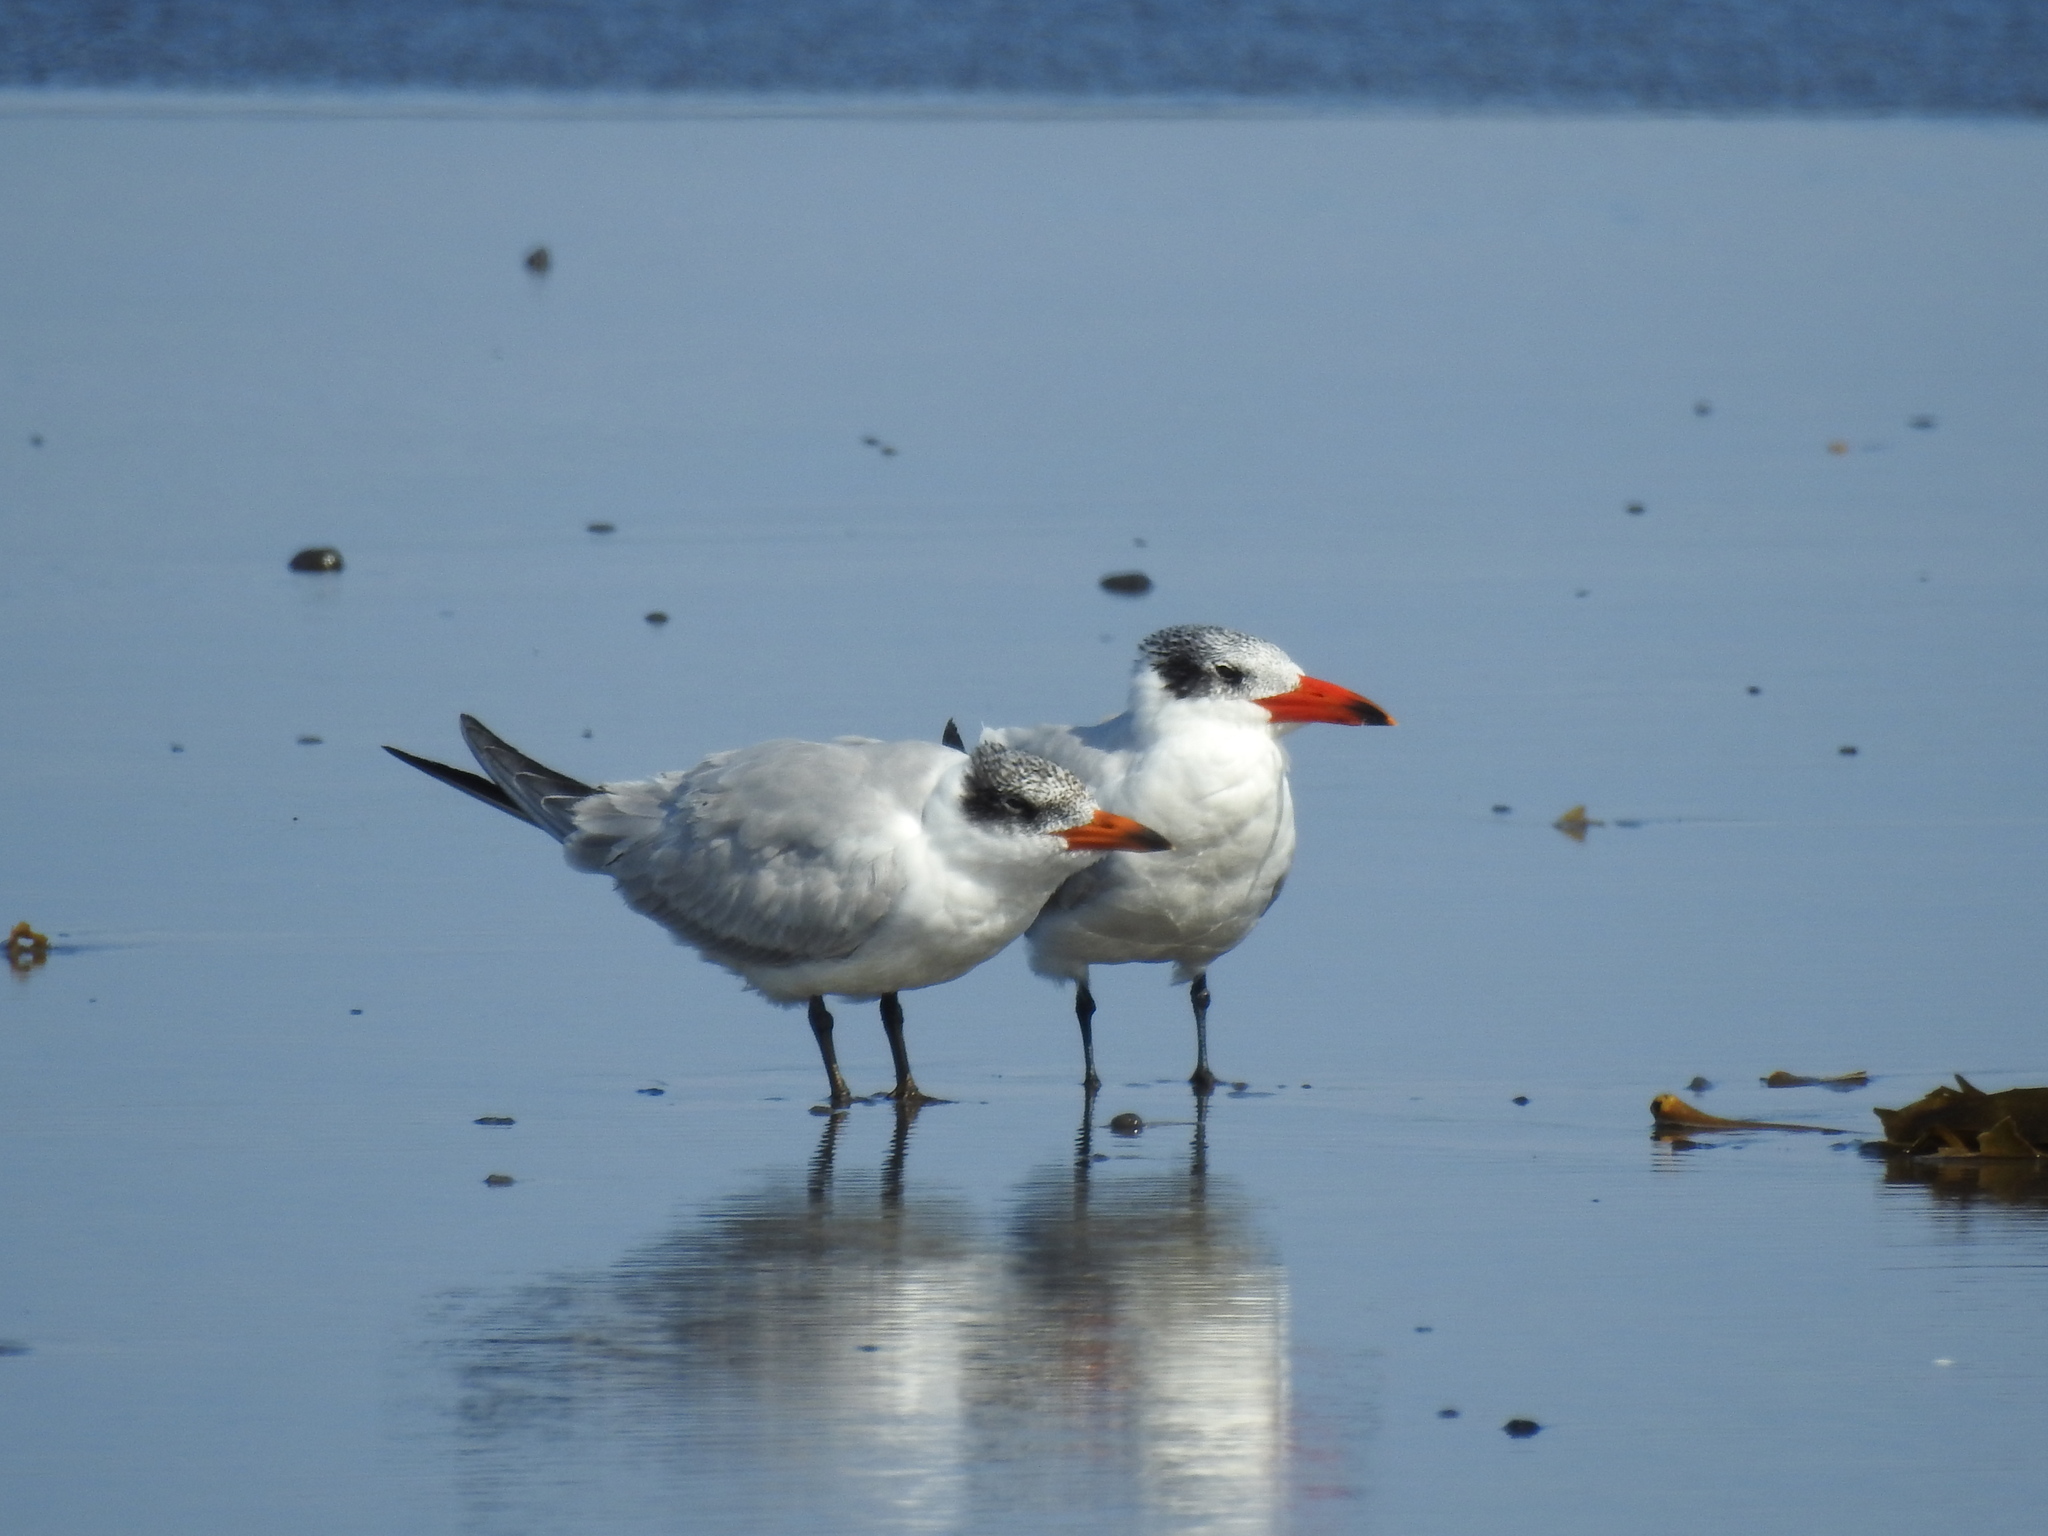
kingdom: Animalia
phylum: Chordata
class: Aves
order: Charadriiformes
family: Laridae
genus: Hydroprogne
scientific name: Hydroprogne caspia
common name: Caspian tern
